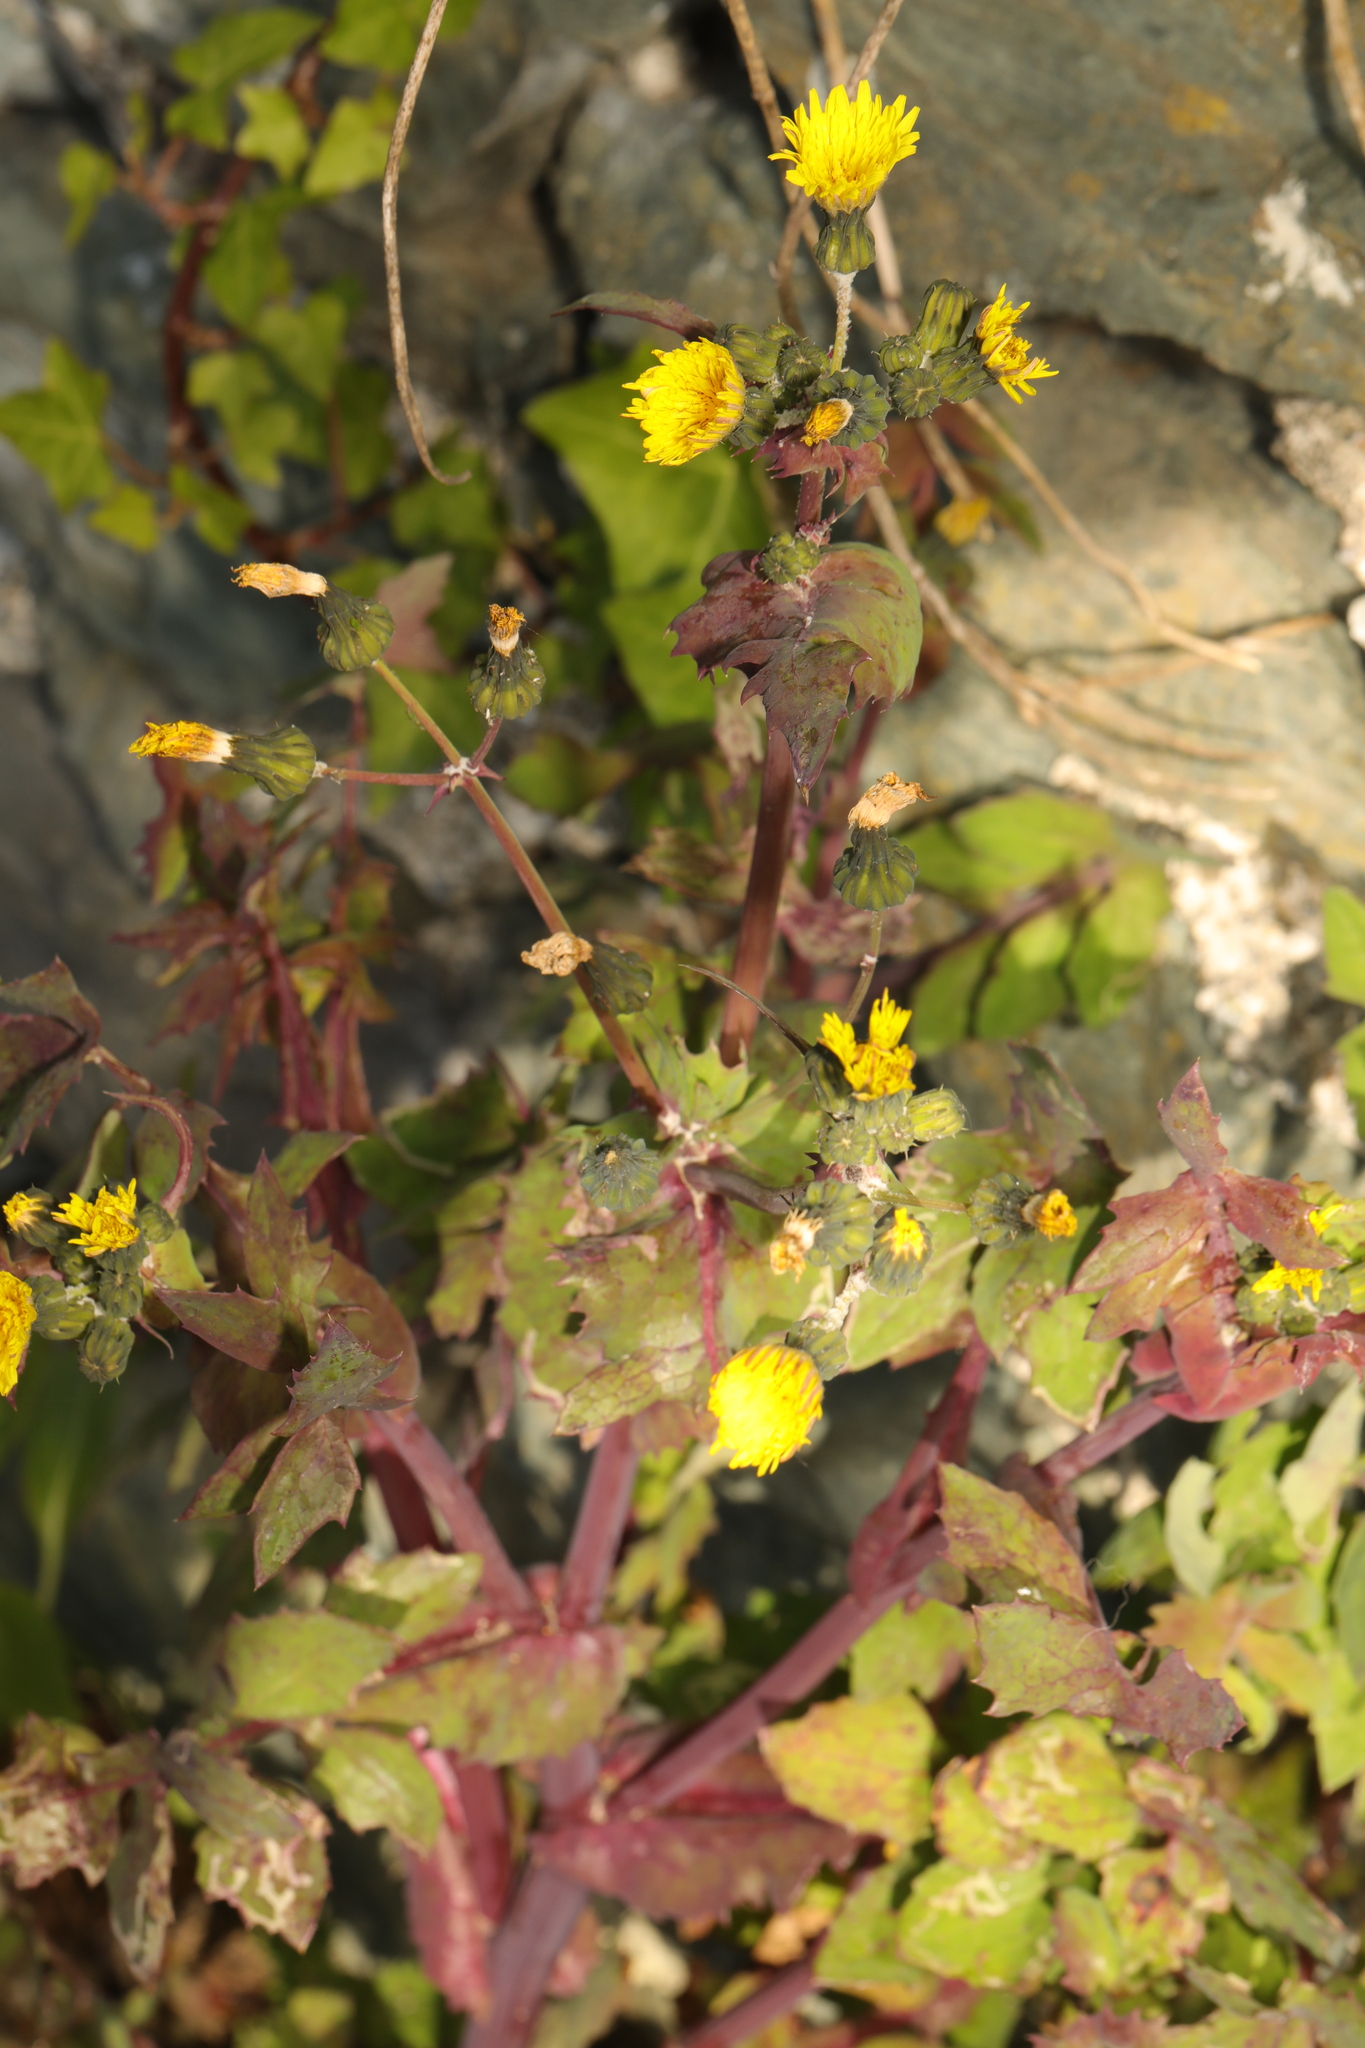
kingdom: Plantae
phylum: Tracheophyta
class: Magnoliopsida
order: Asterales
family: Asteraceae
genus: Sonchus
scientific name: Sonchus oleraceus
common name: Common sowthistle
